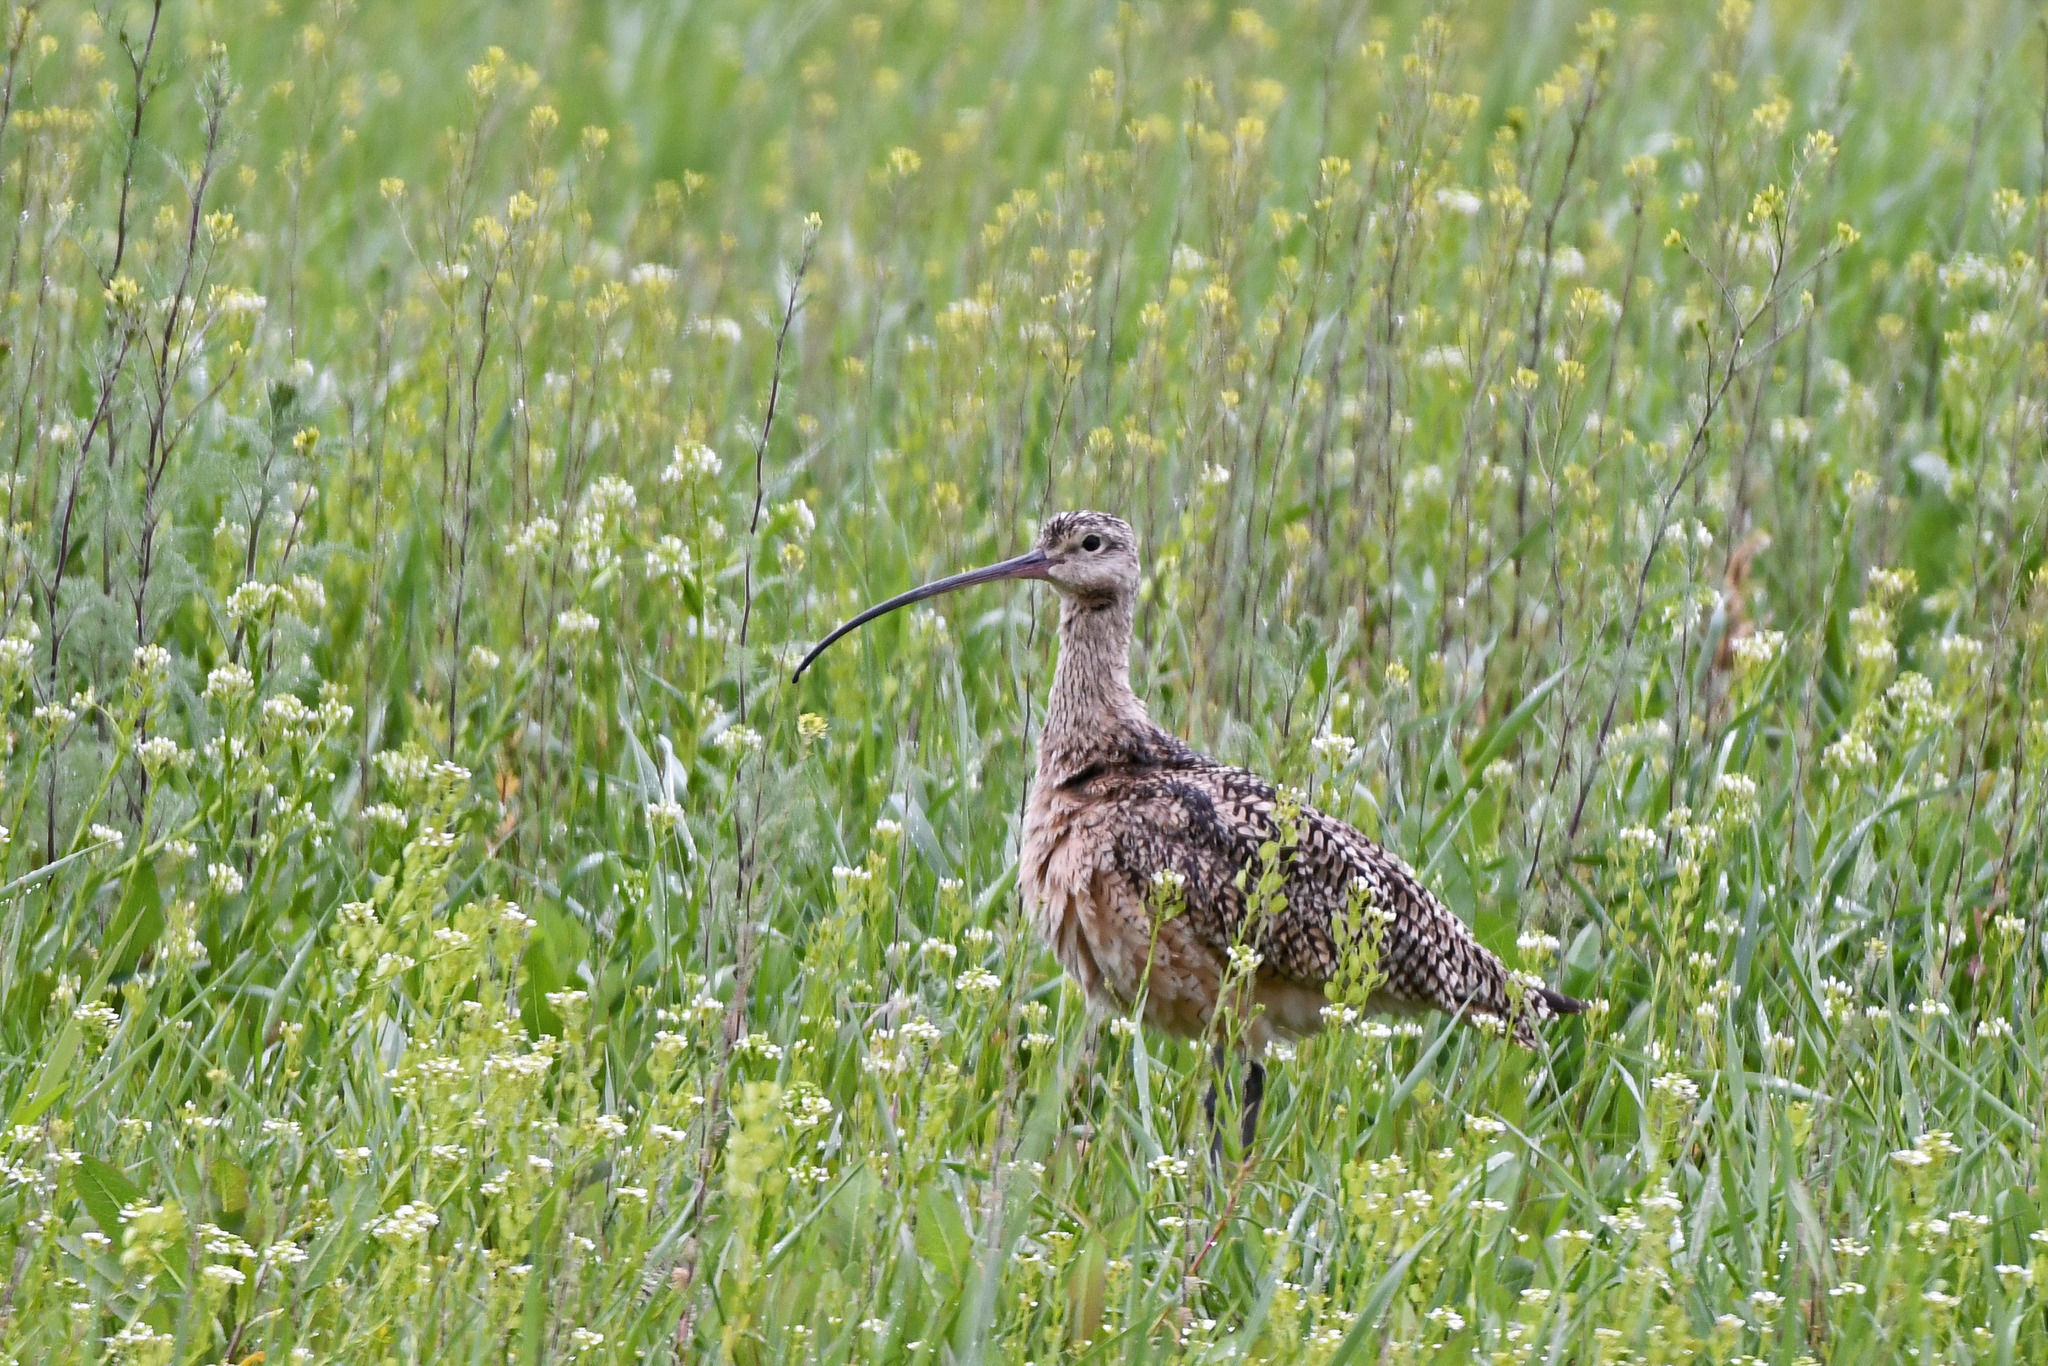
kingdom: Animalia
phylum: Chordata
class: Aves
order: Charadriiformes
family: Scolopacidae
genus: Numenius
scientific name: Numenius americanus
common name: Long-billed curlew
